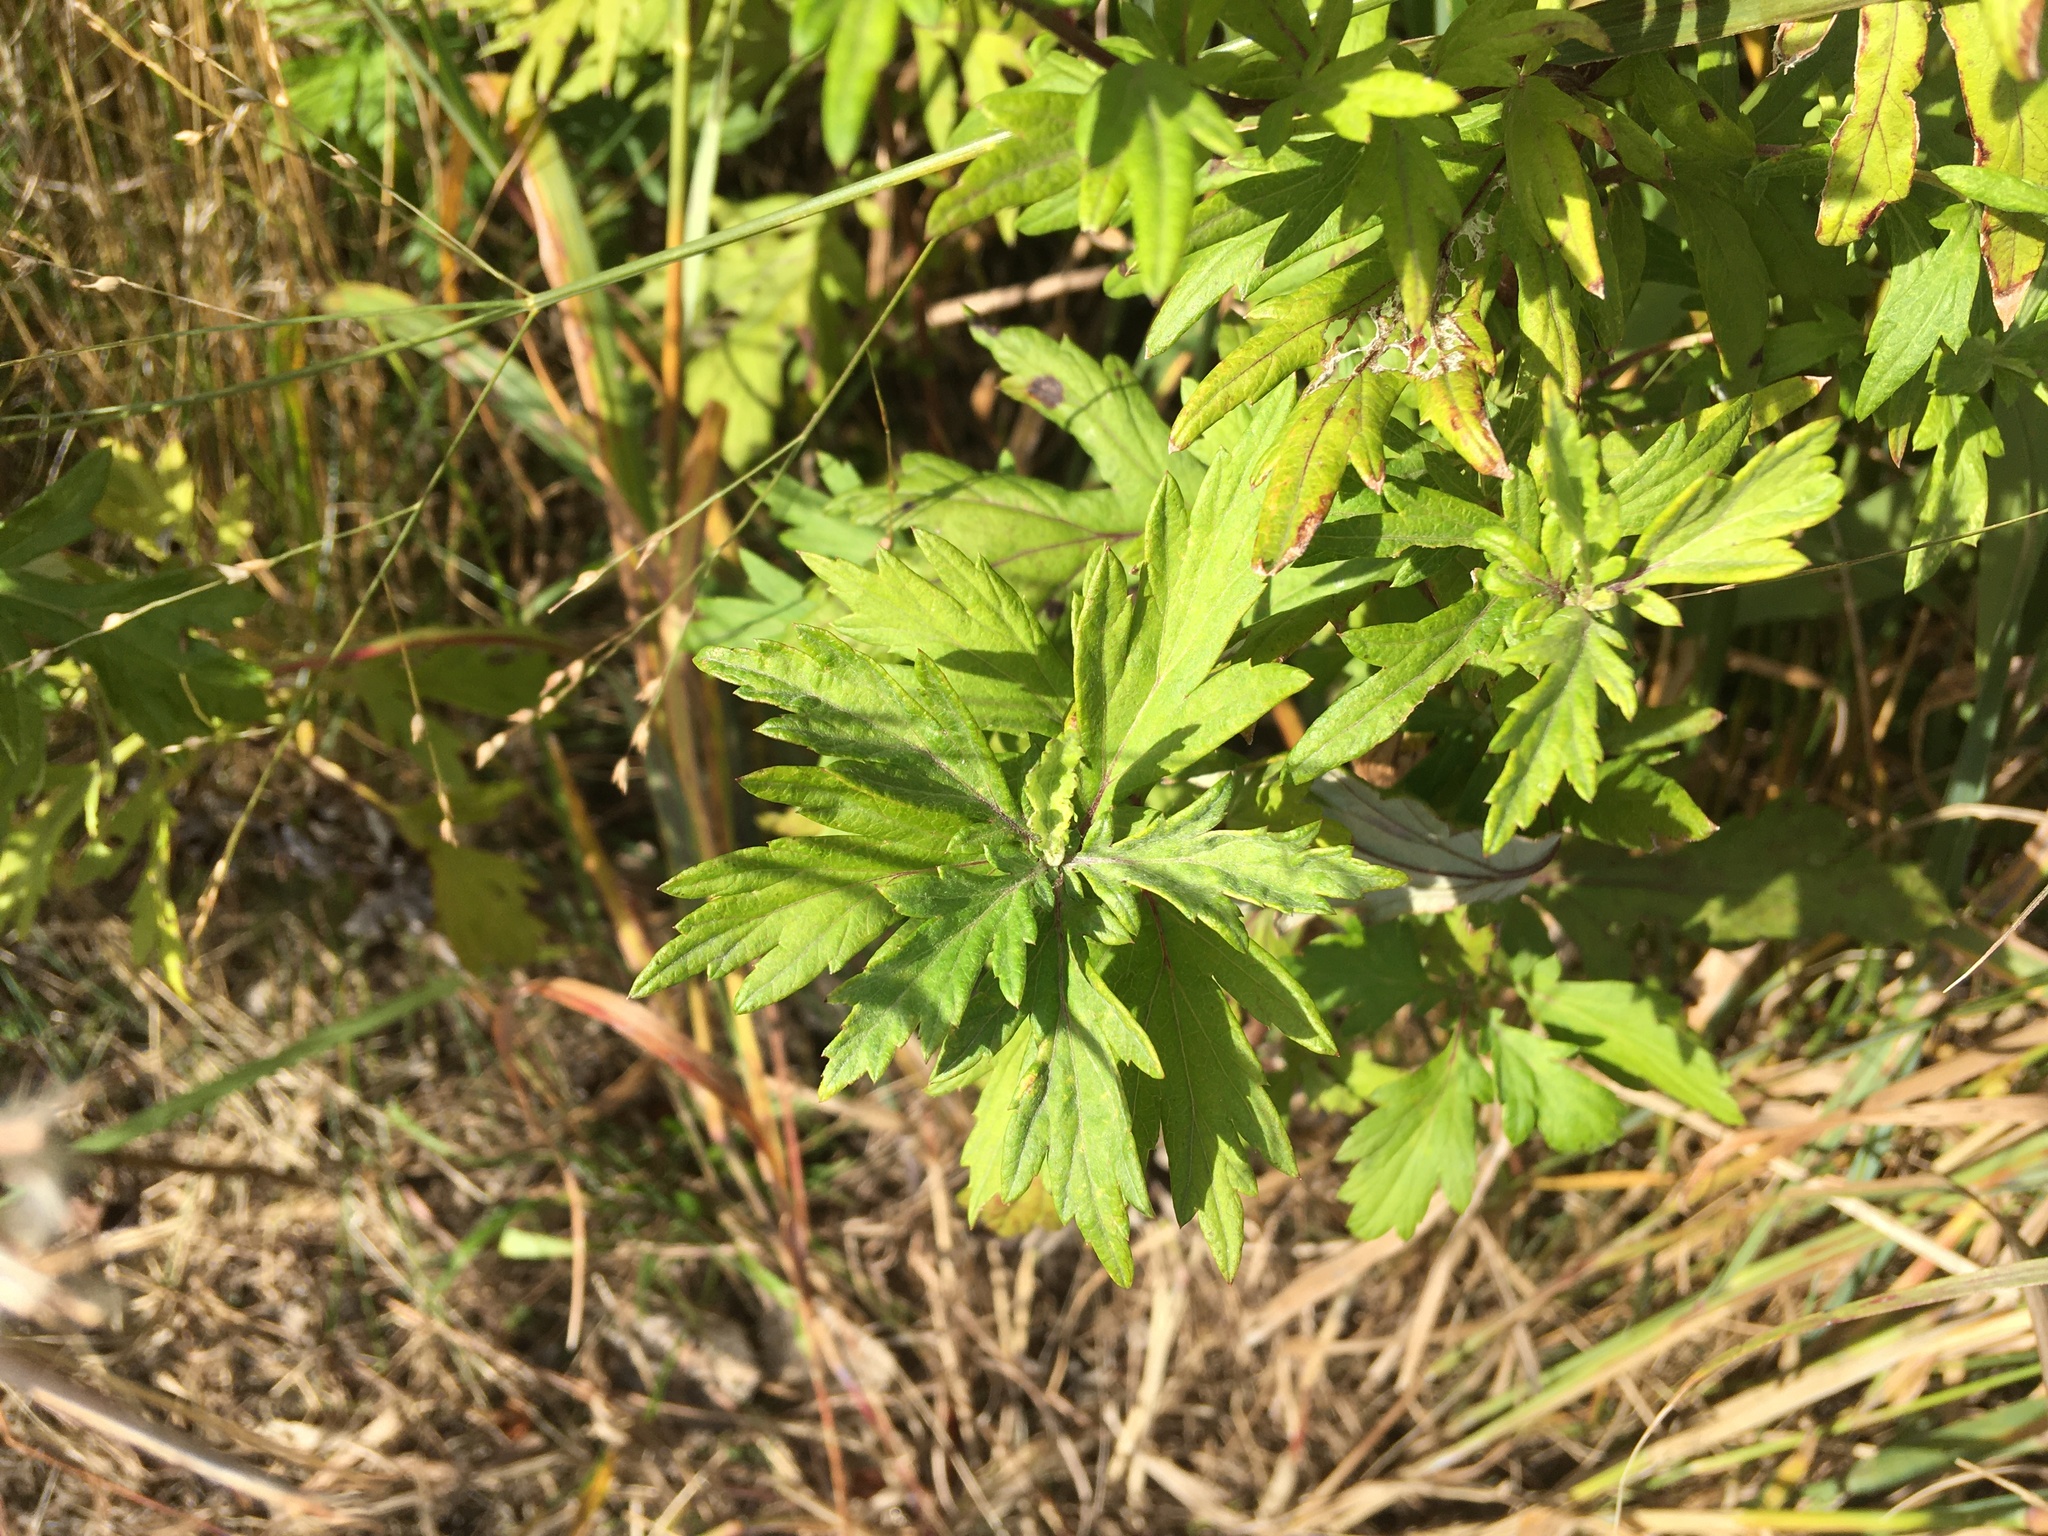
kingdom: Plantae
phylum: Tracheophyta
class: Magnoliopsida
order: Asterales
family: Asteraceae
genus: Artemisia
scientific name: Artemisia vulgaris
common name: Mugwort
